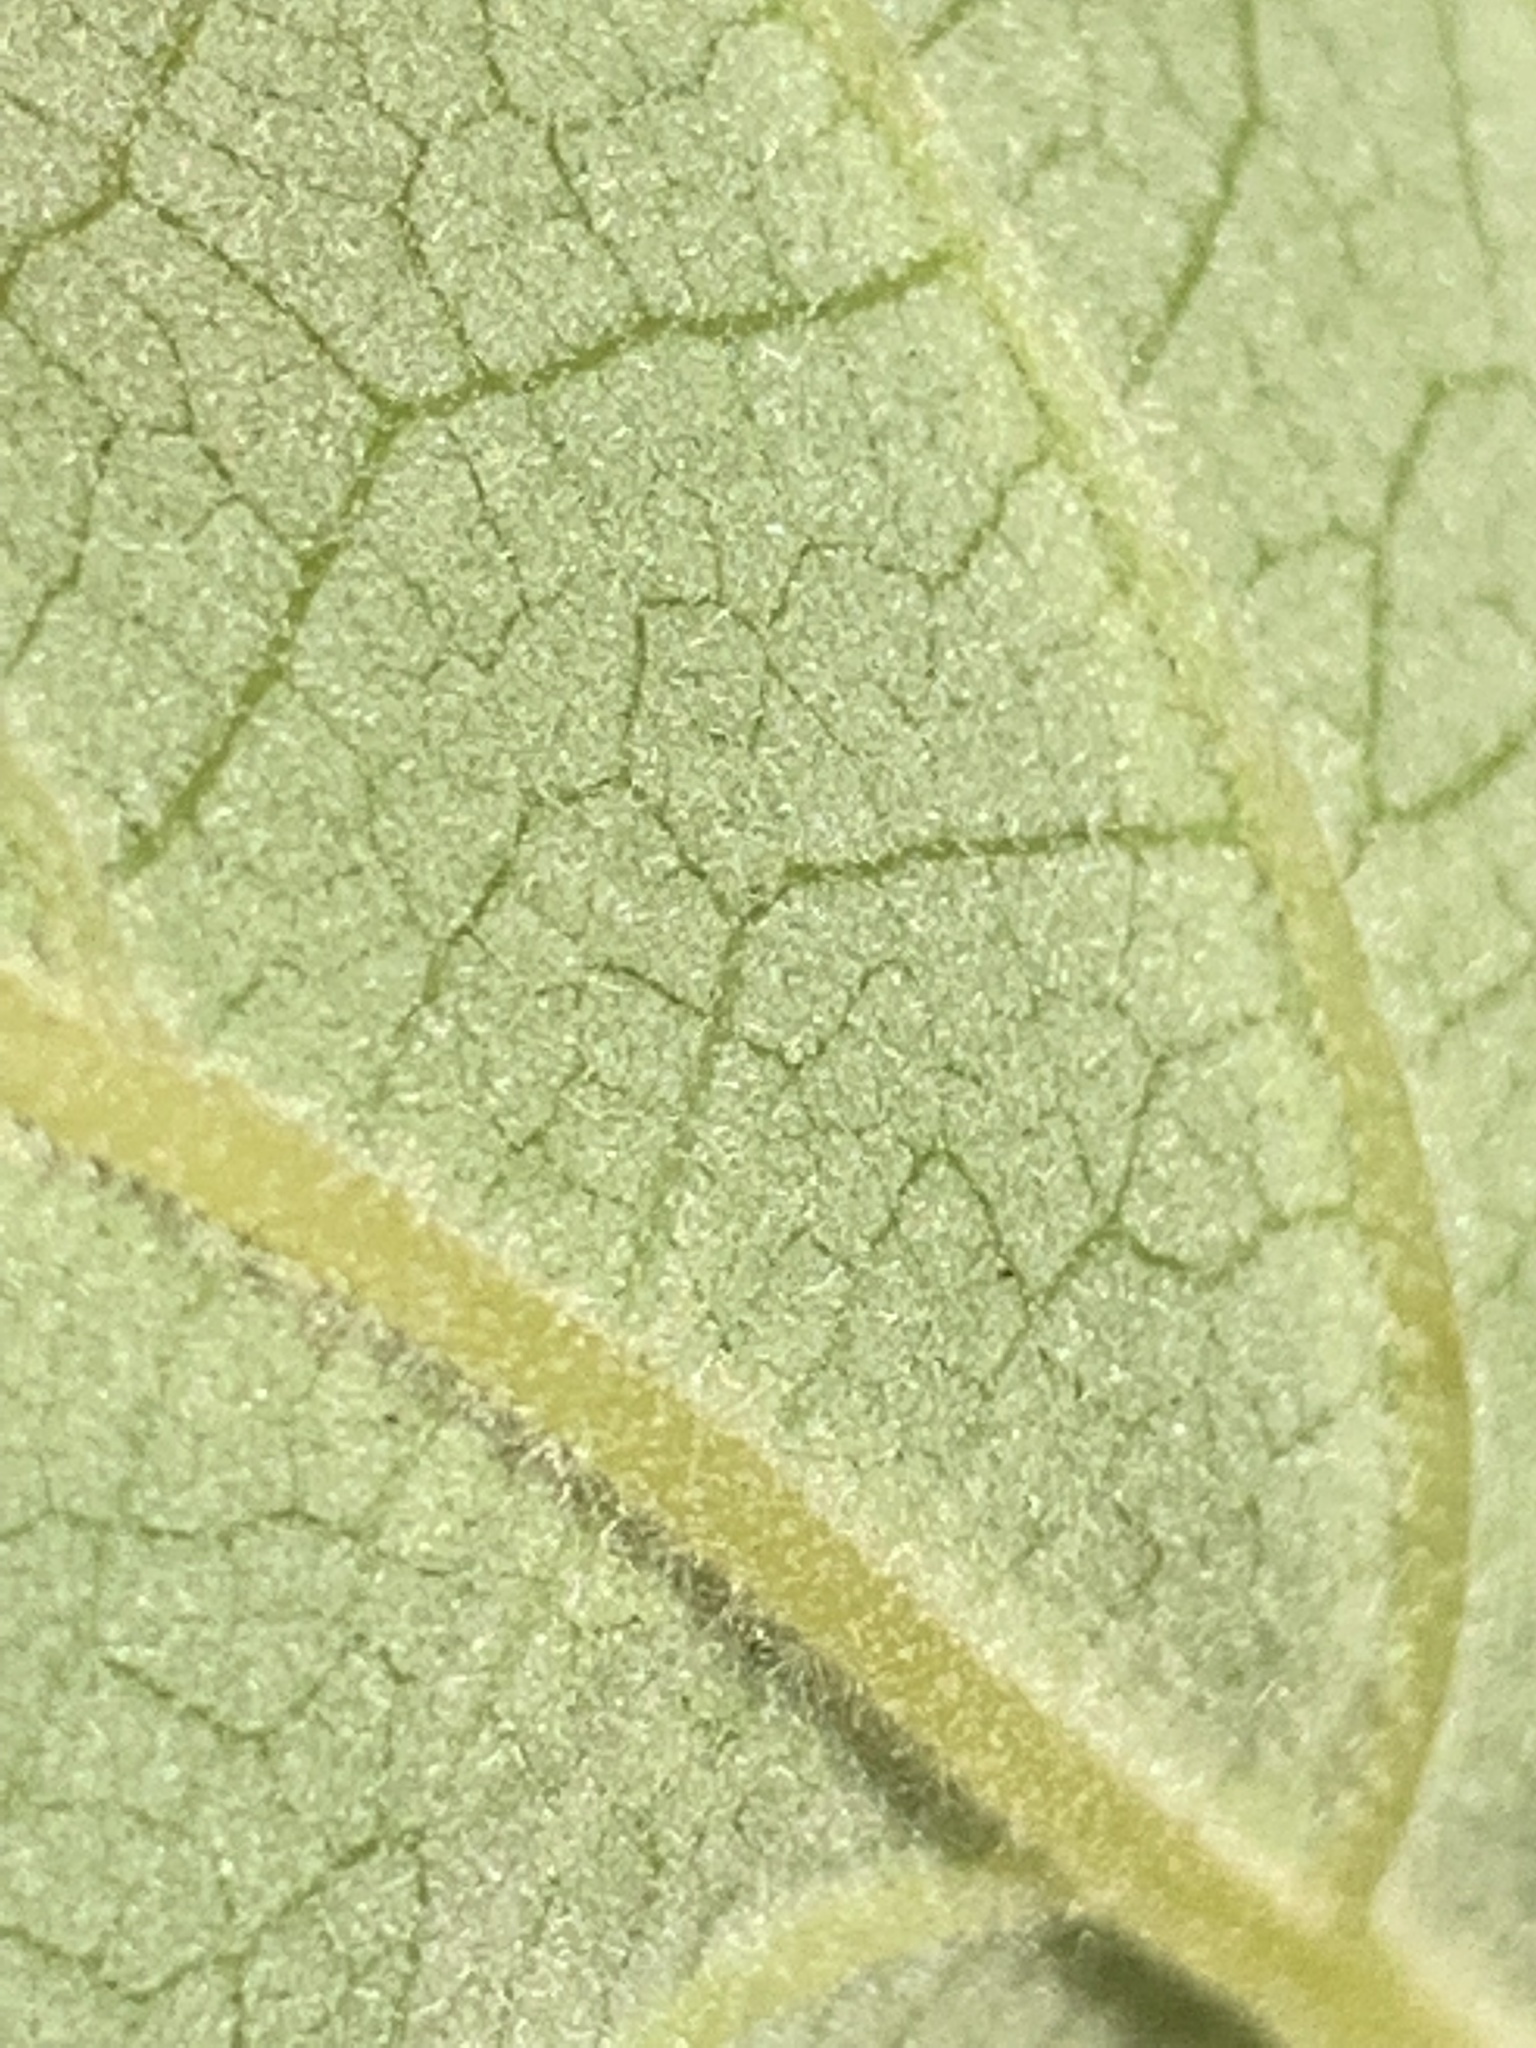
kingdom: Plantae
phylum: Tracheophyta
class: Magnoliopsida
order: Ericales
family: Styracaceae
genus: Styrax
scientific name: Styrax grandifolius
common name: Big-leaf snowbell
